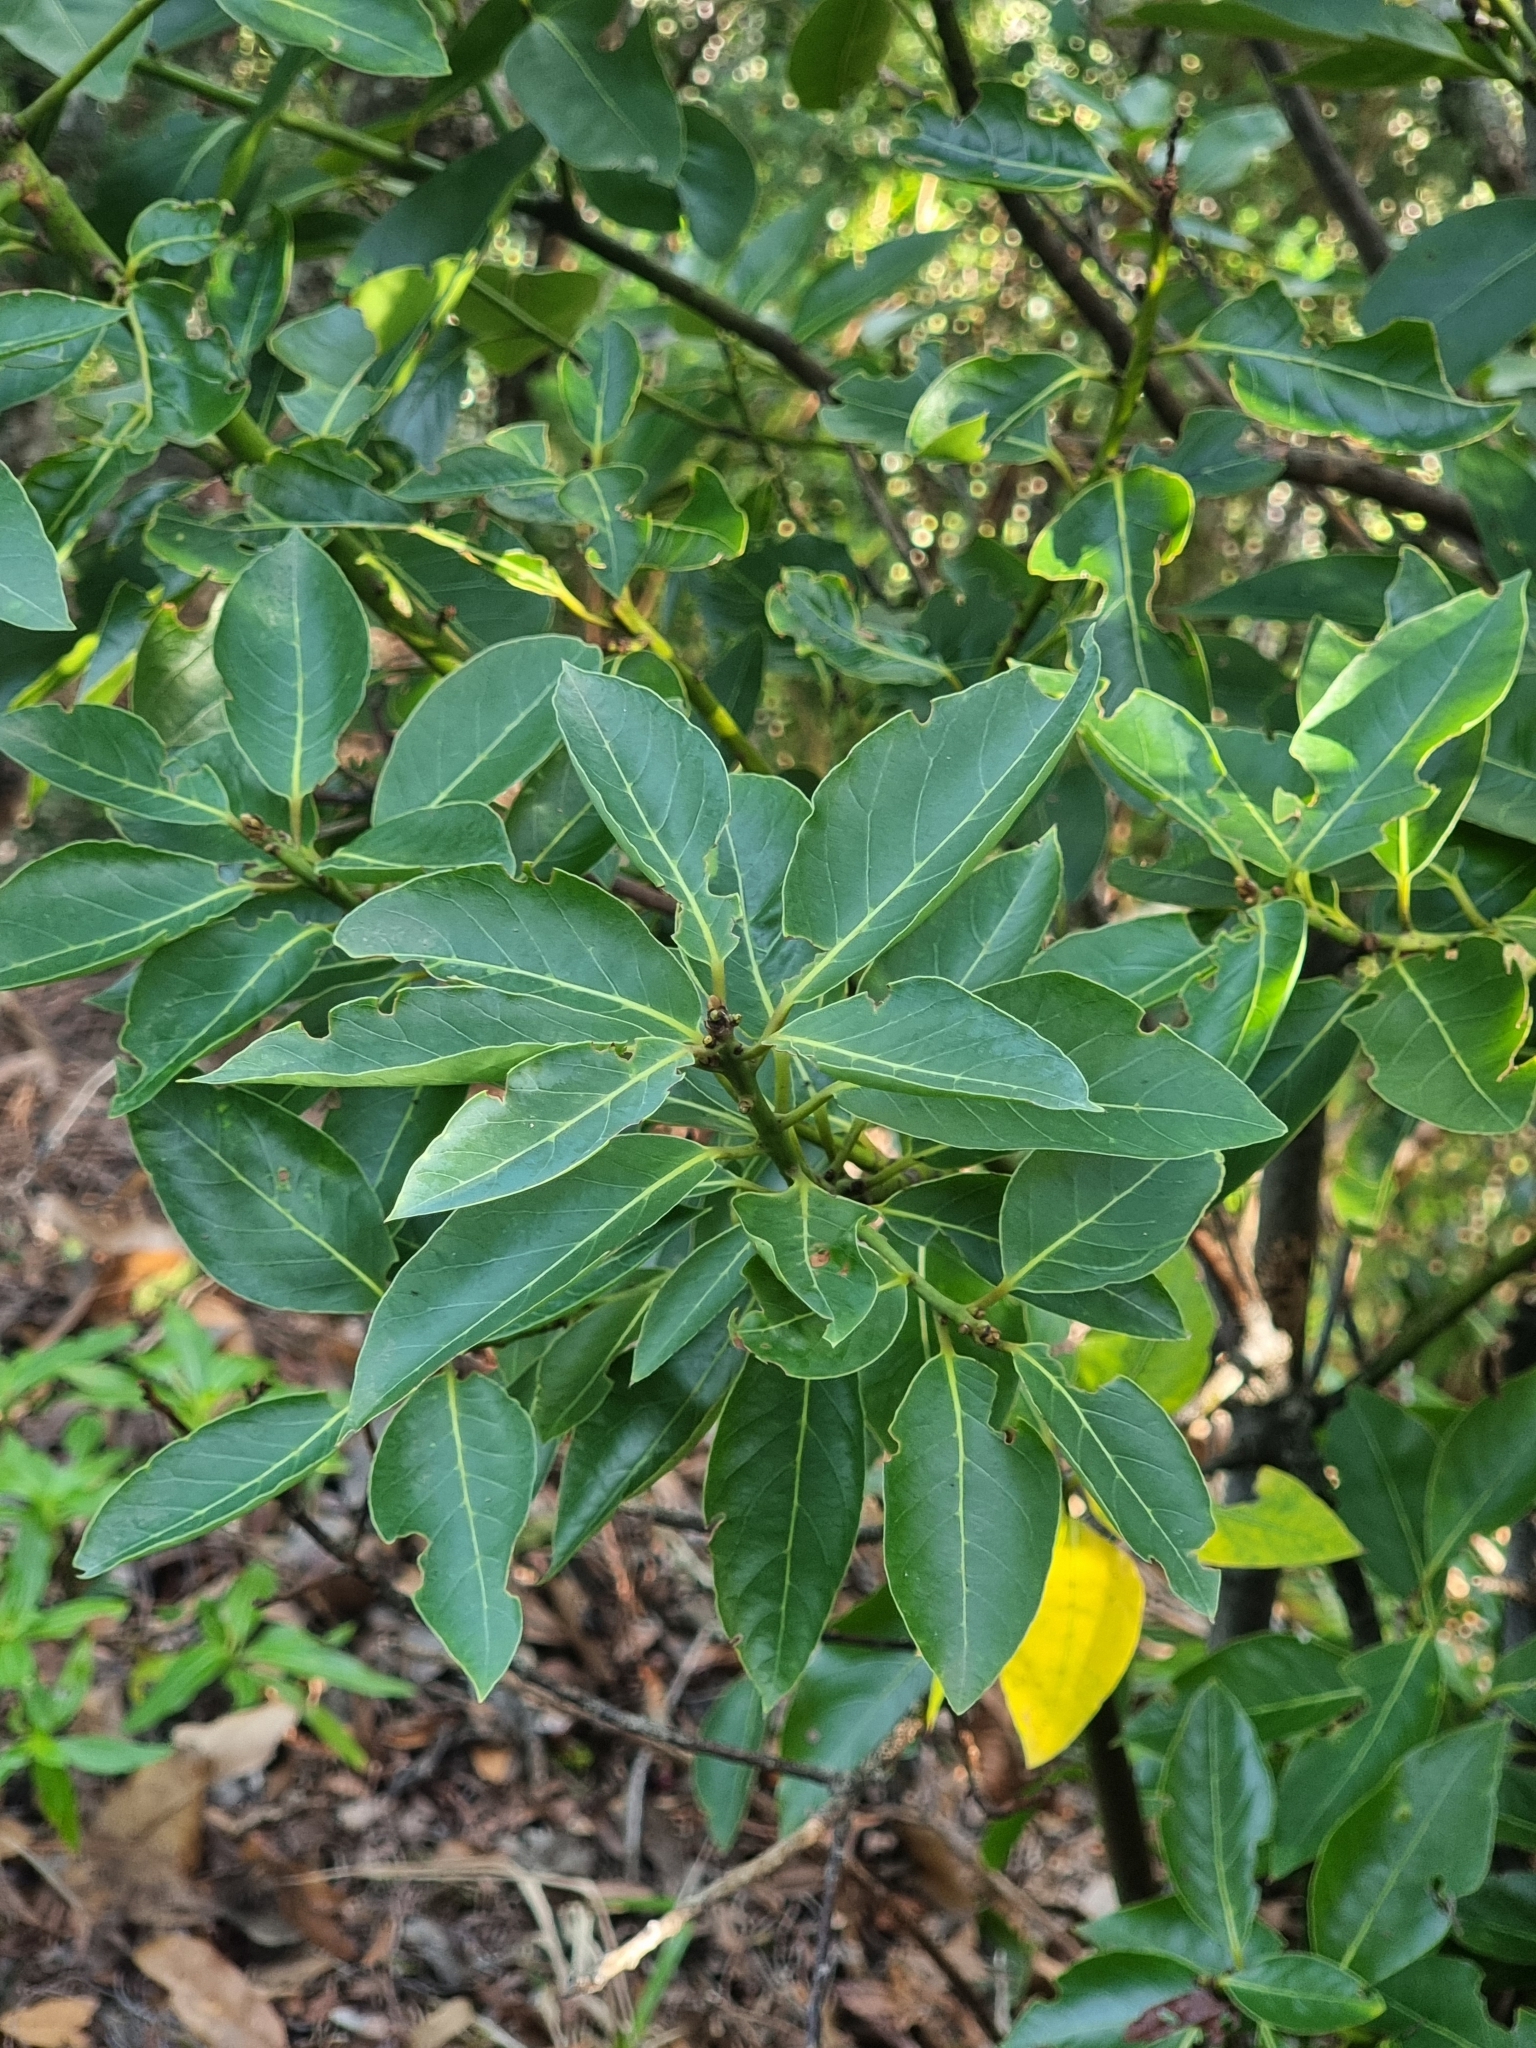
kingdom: Plantae
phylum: Tracheophyta
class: Magnoliopsida
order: Laurales
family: Lauraceae
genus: Laurus
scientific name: Laurus novocanariensis
